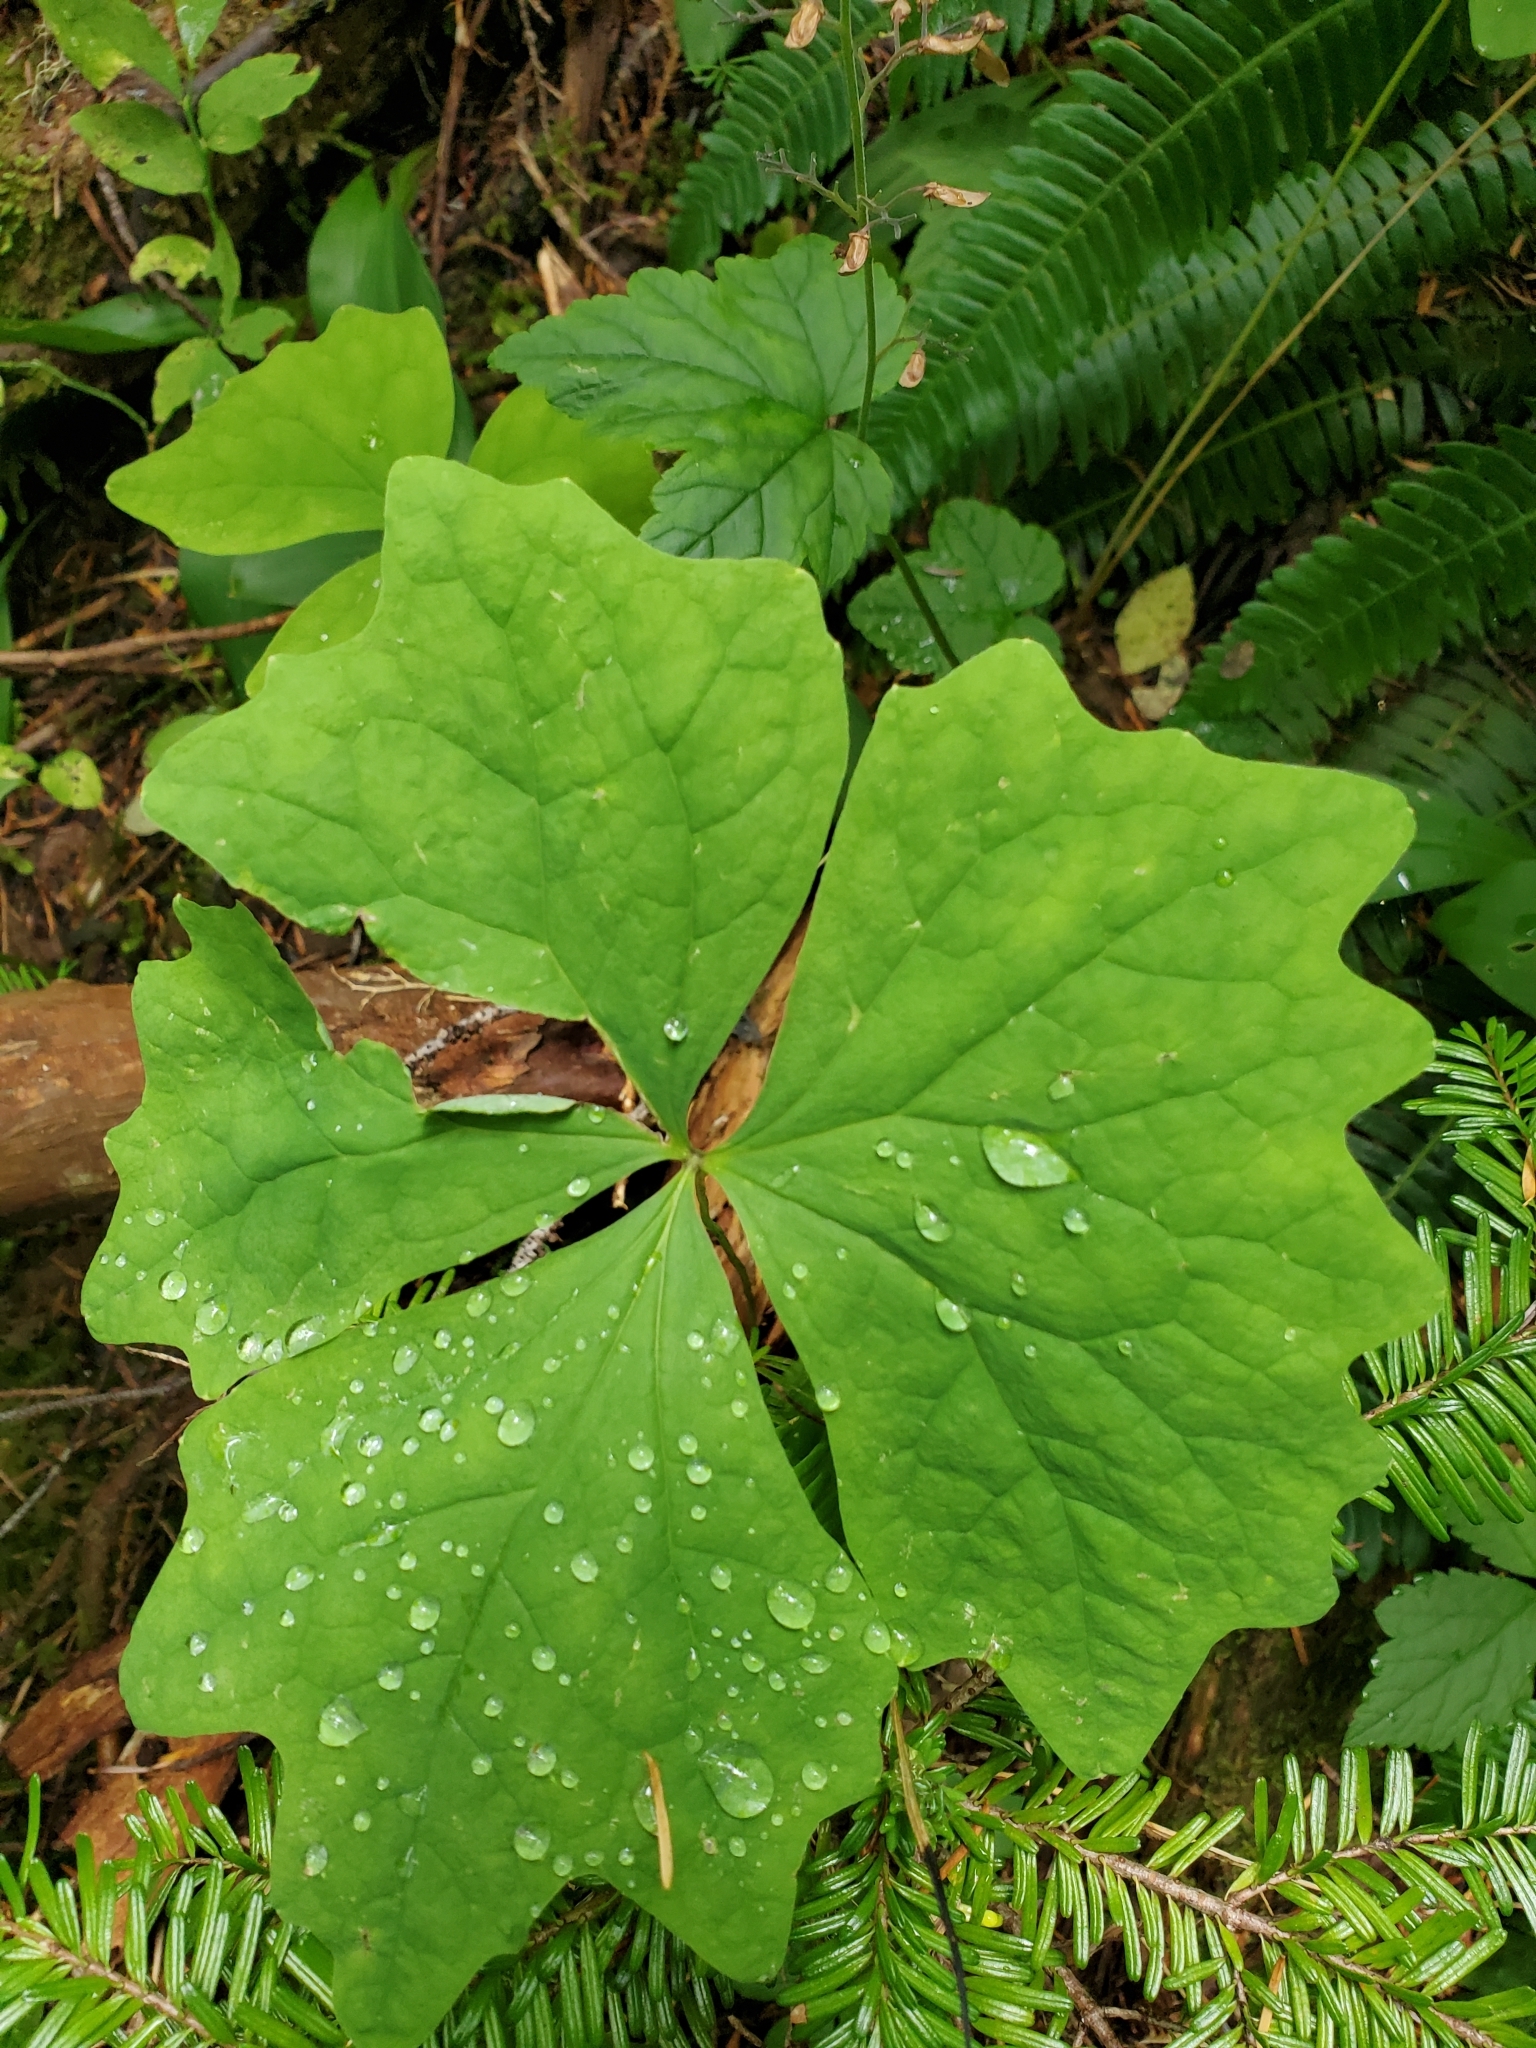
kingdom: Plantae
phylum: Tracheophyta
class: Magnoliopsida
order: Ranunculales
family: Berberidaceae
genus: Achlys
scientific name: Achlys triphylla
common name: Vanilla-leaf
